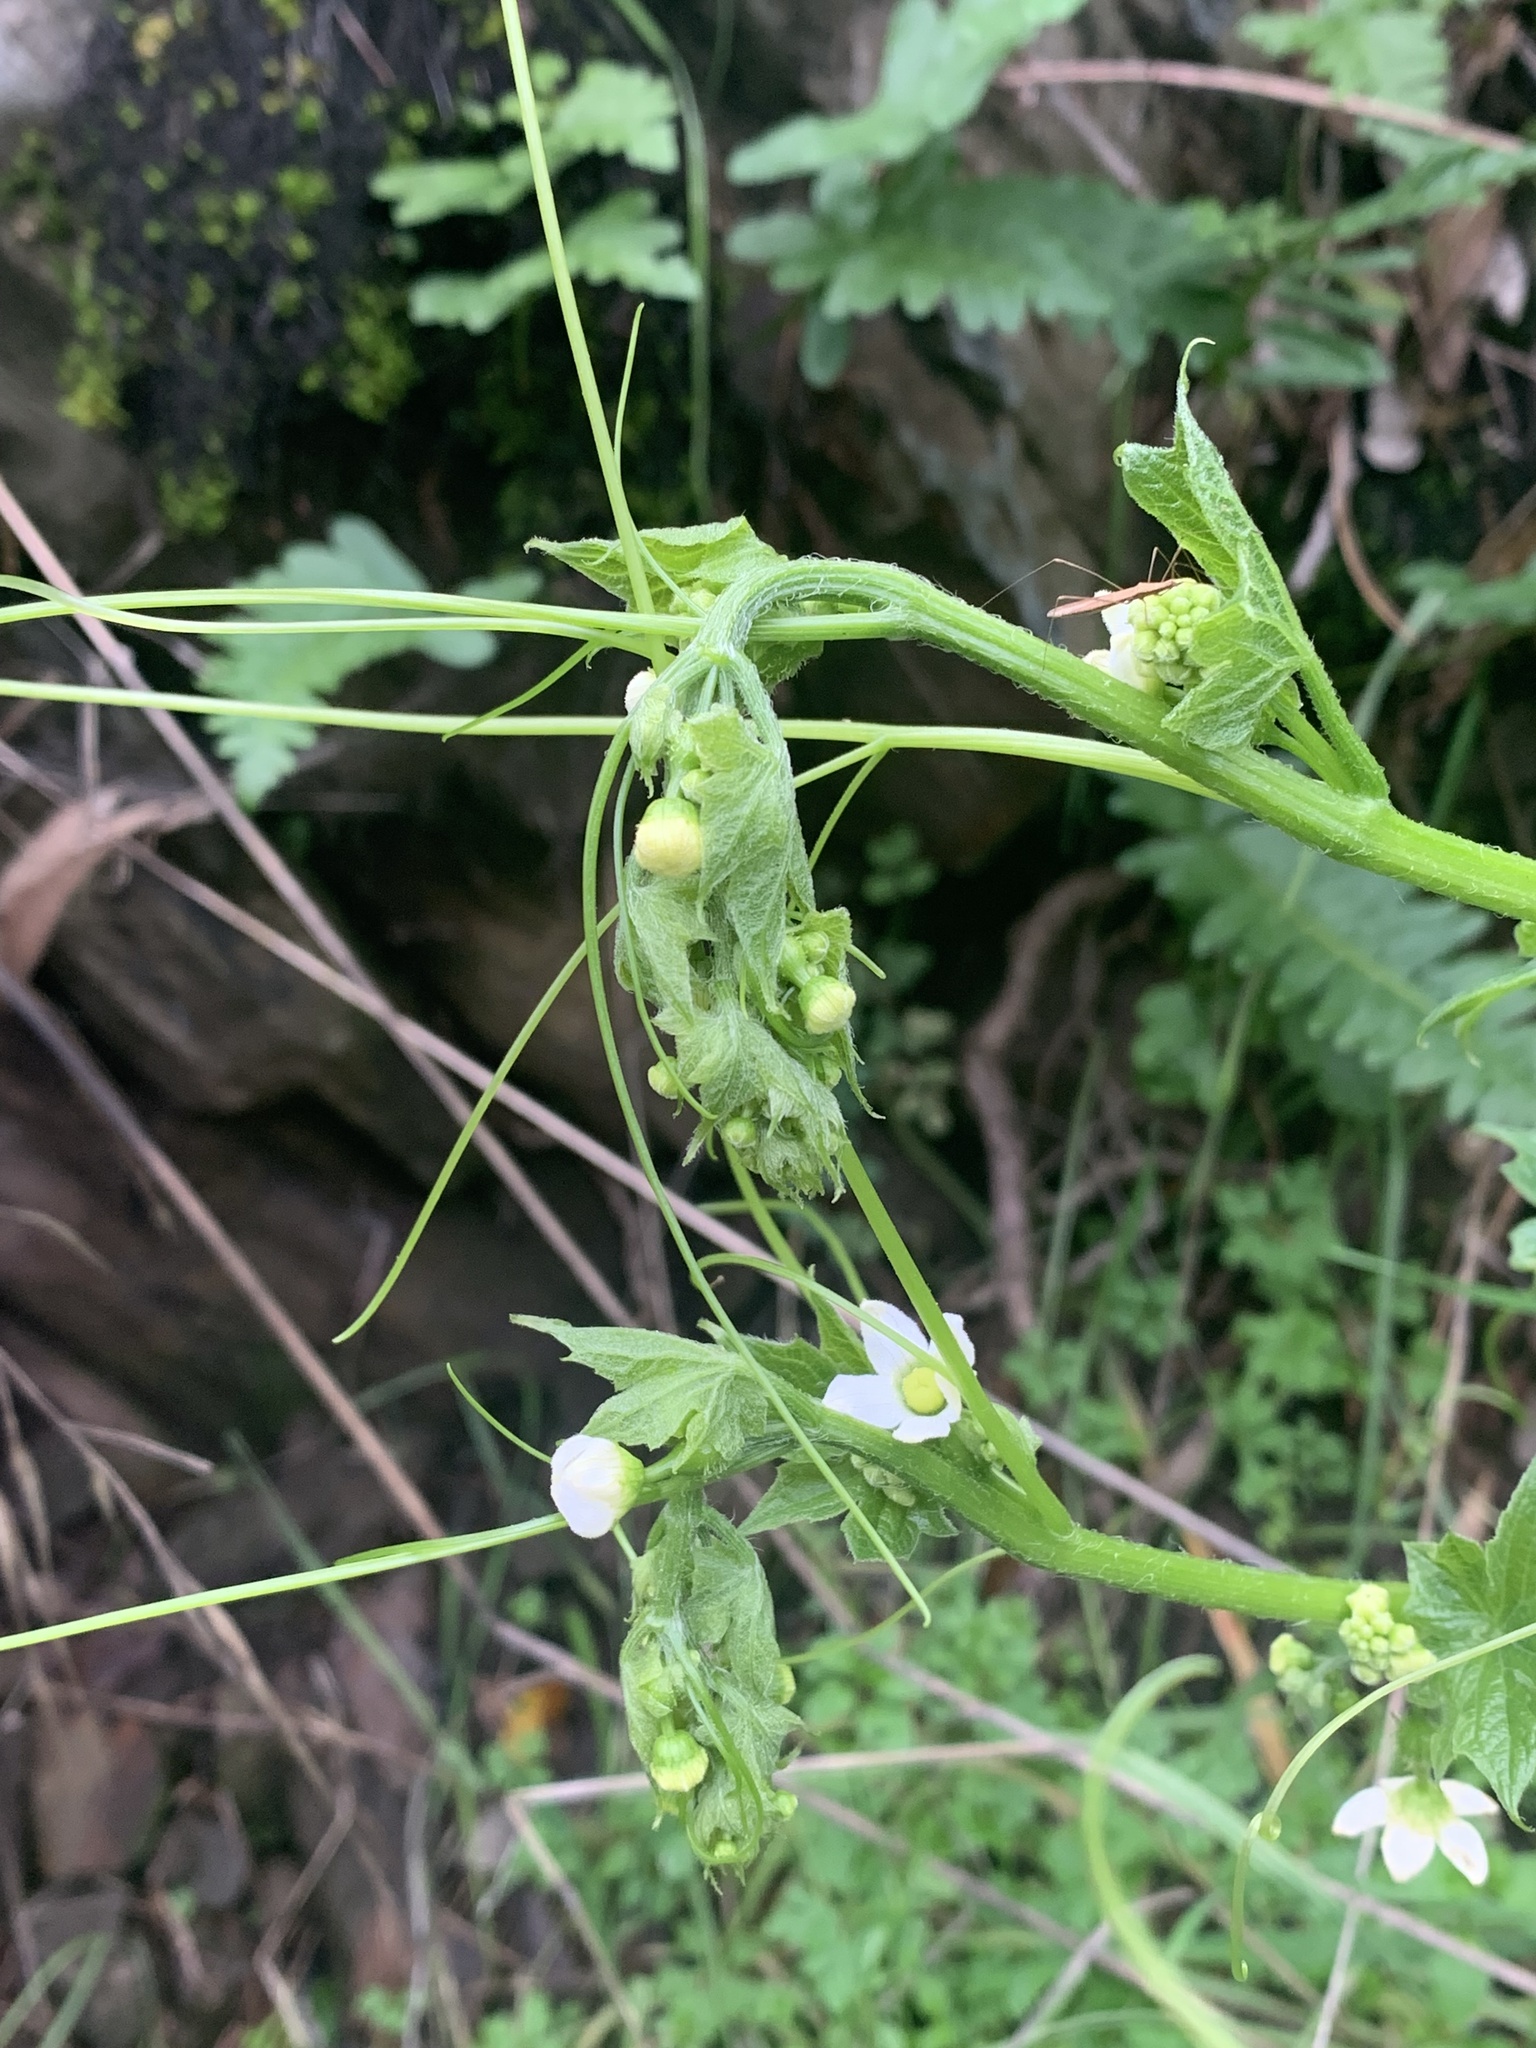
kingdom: Plantae
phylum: Tracheophyta
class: Magnoliopsida
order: Cucurbitales
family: Cucurbitaceae
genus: Marah
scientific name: Marah oregana
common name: Coastal manroot
